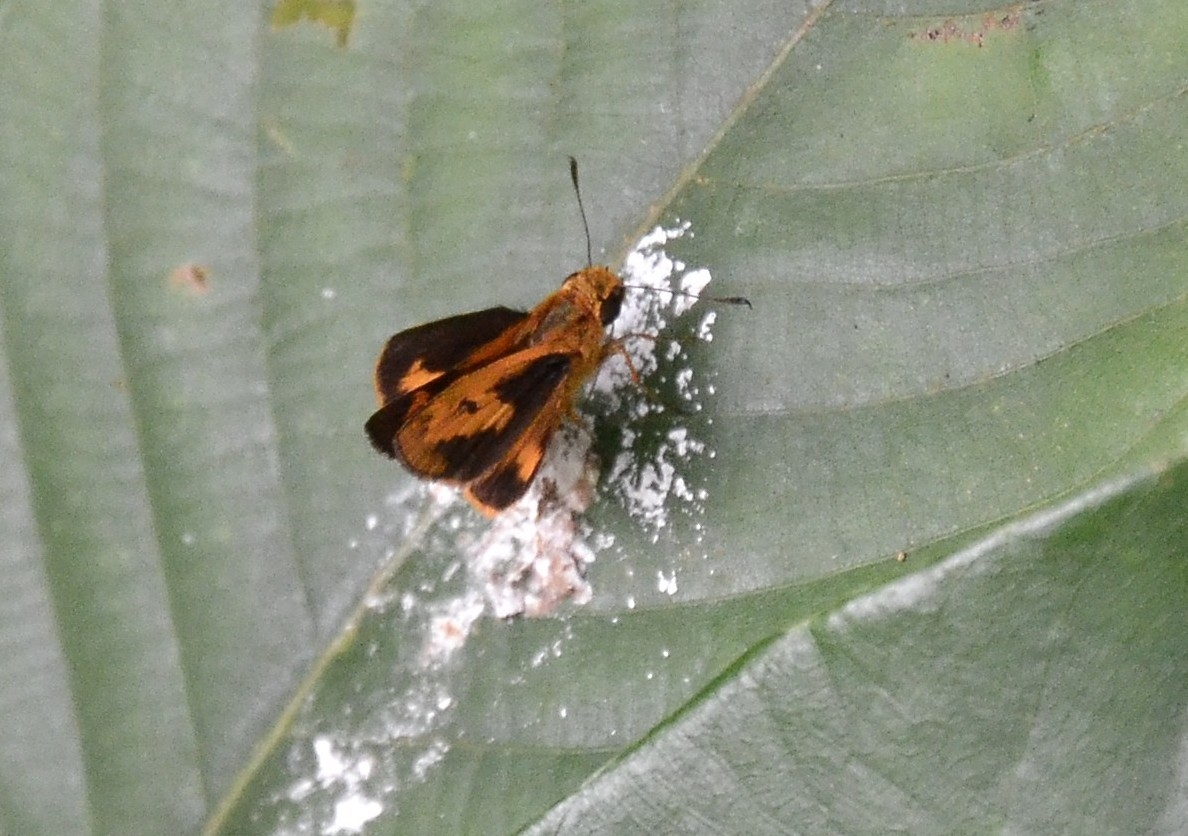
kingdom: Animalia
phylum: Arthropoda
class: Insecta
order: Lepidoptera
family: Hesperiidae
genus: Oriens
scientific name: Oriens goloides
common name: Smaller dartlet
